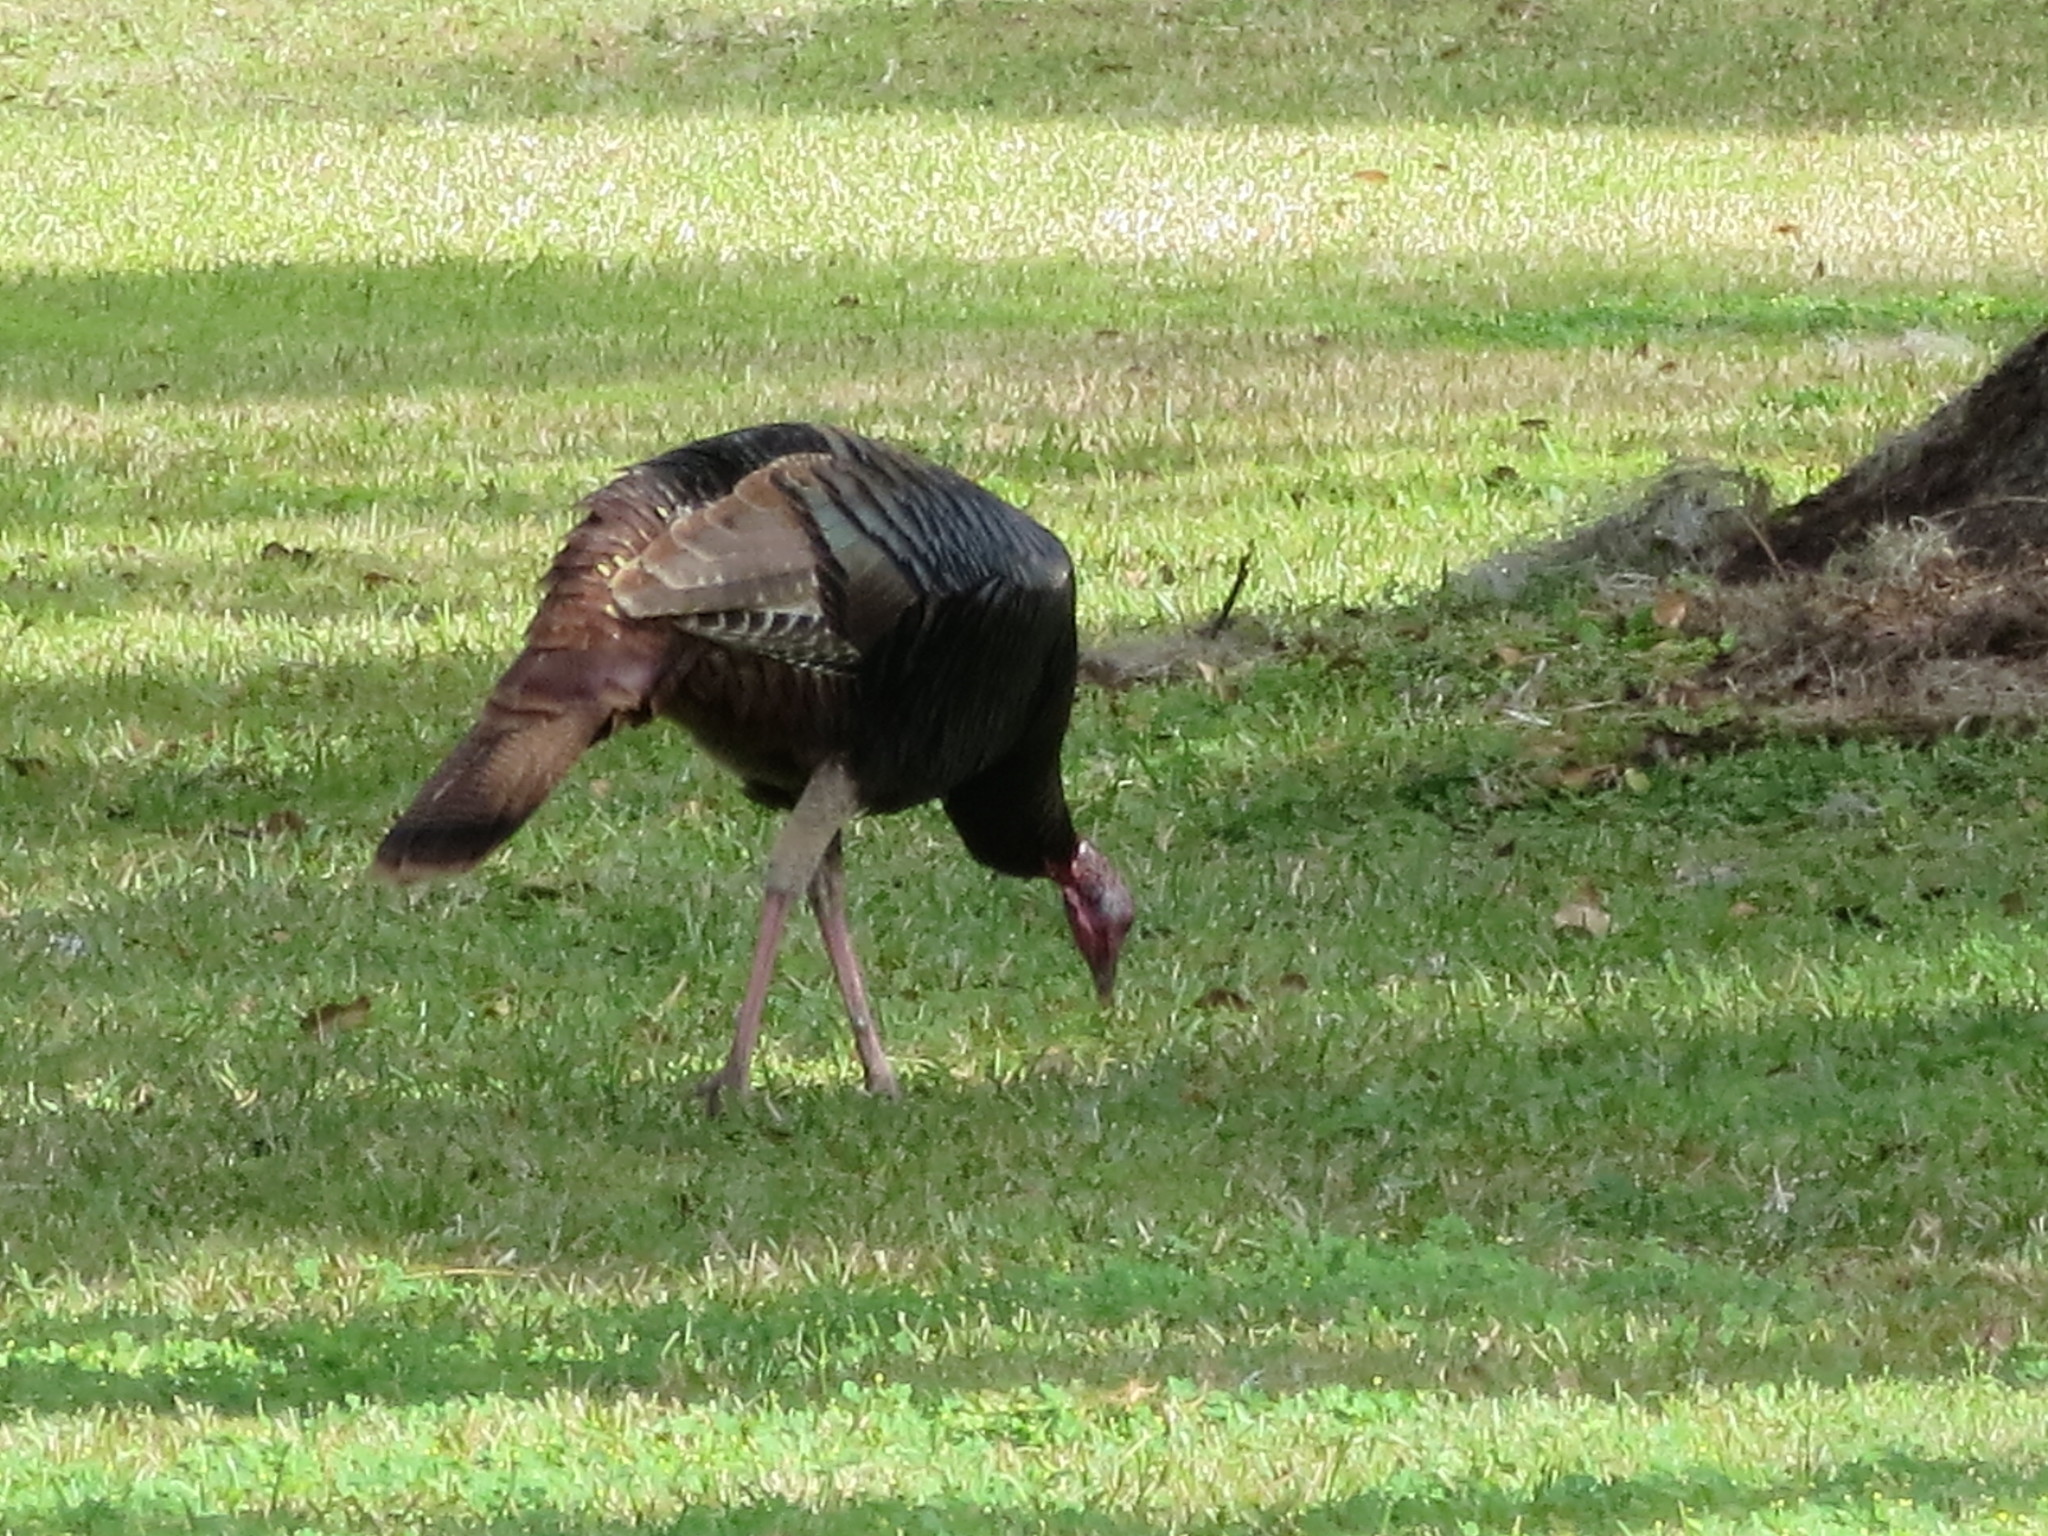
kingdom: Animalia
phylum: Chordata
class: Aves
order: Galliformes
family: Phasianidae
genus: Meleagris
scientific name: Meleagris gallopavo
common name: Wild turkey
